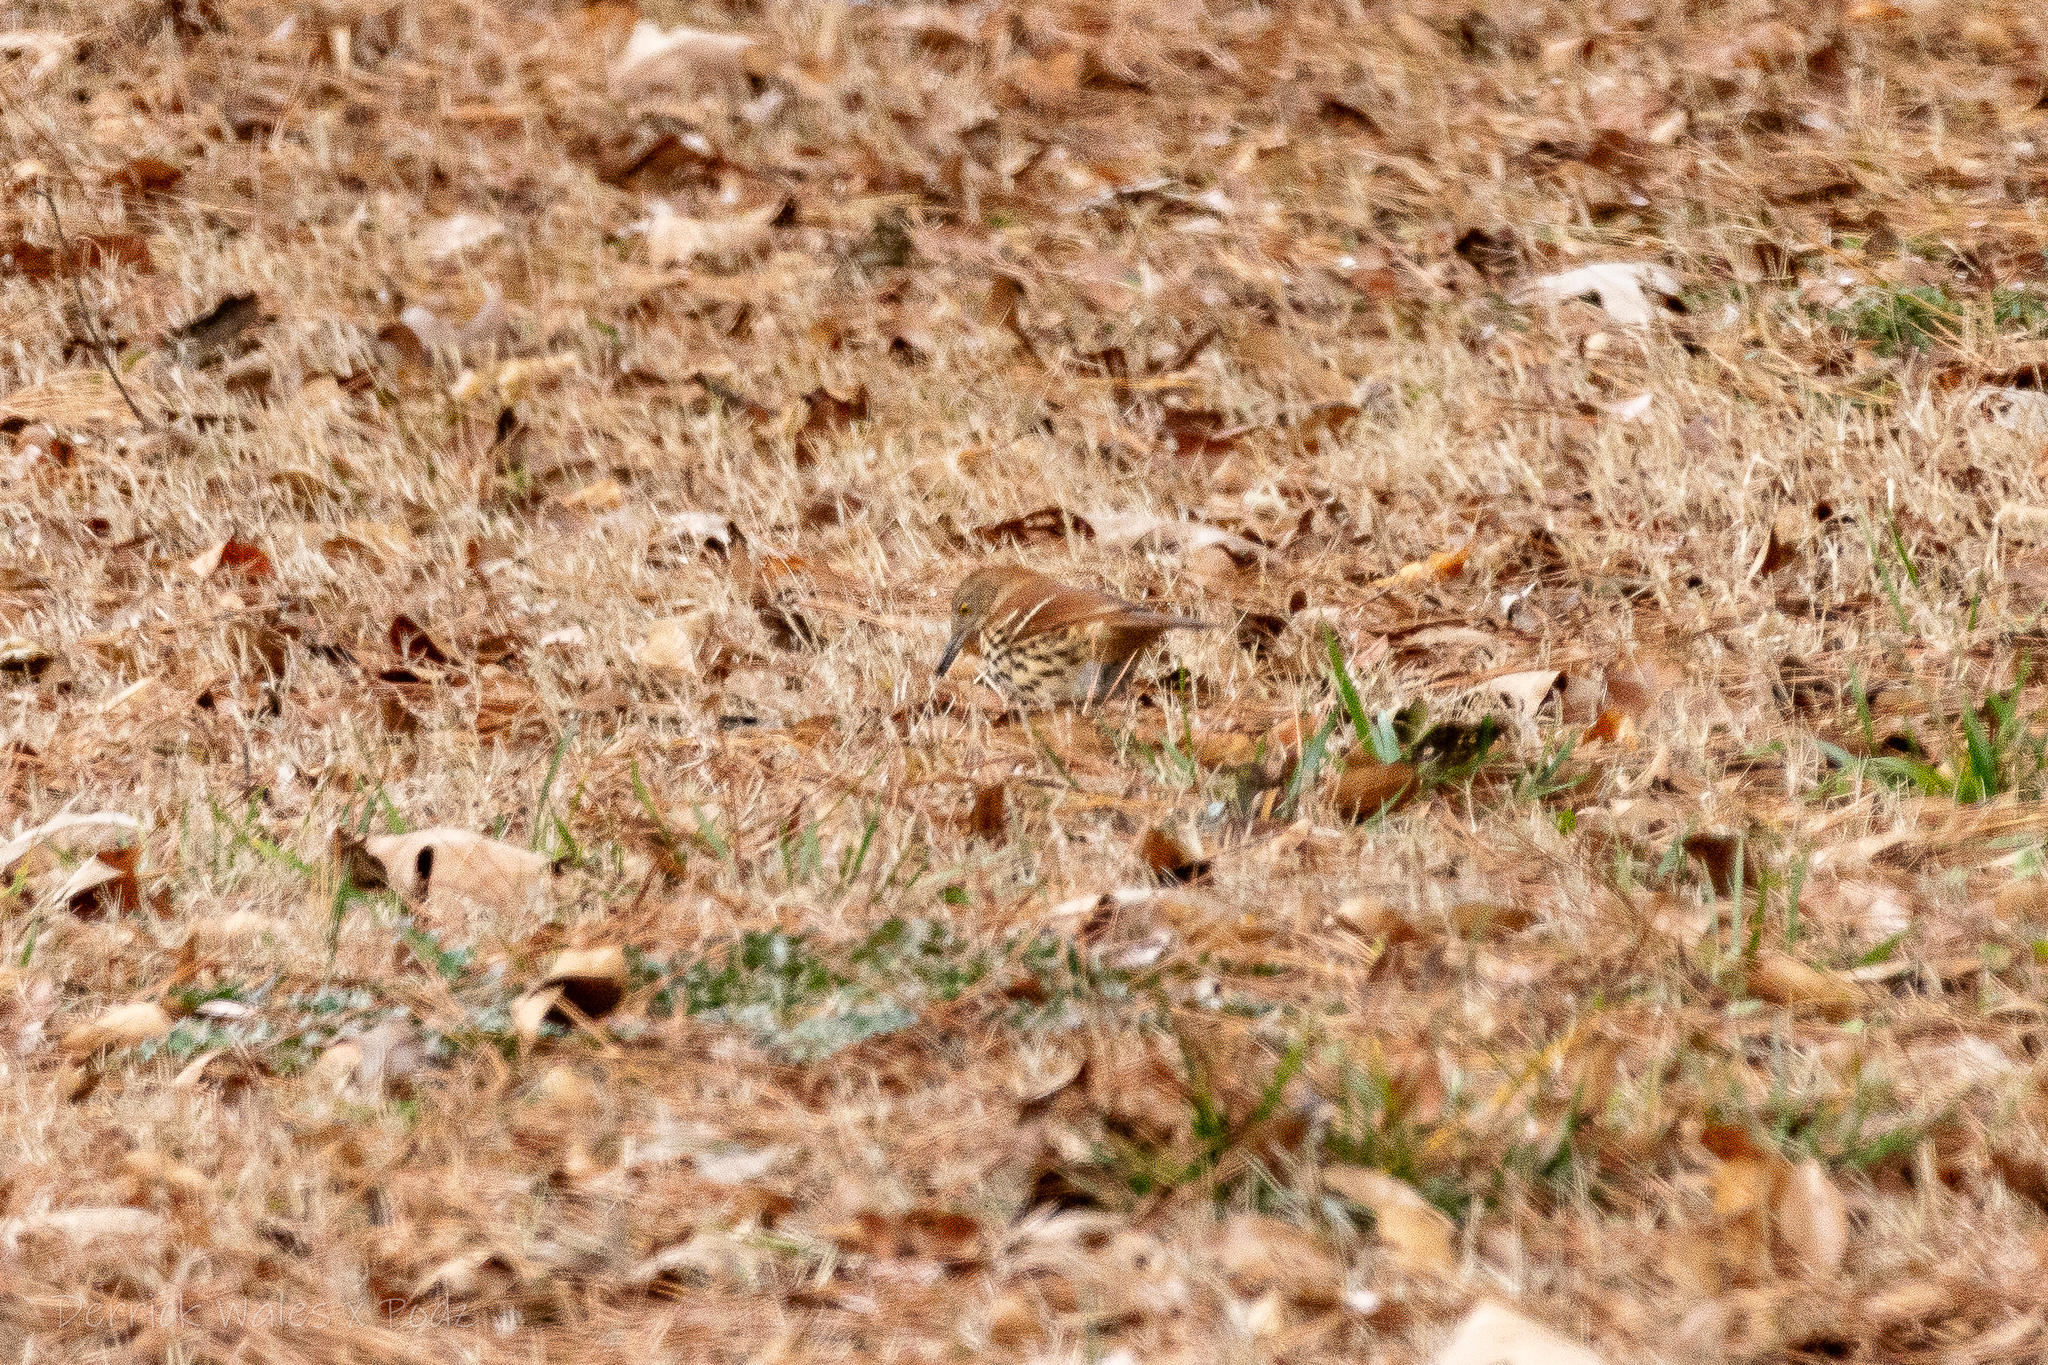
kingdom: Animalia
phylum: Chordata
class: Aves
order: Passeriformes
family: Mimidae
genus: Toxostoma
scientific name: Toxostoma rufum
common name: Brown thrasher
